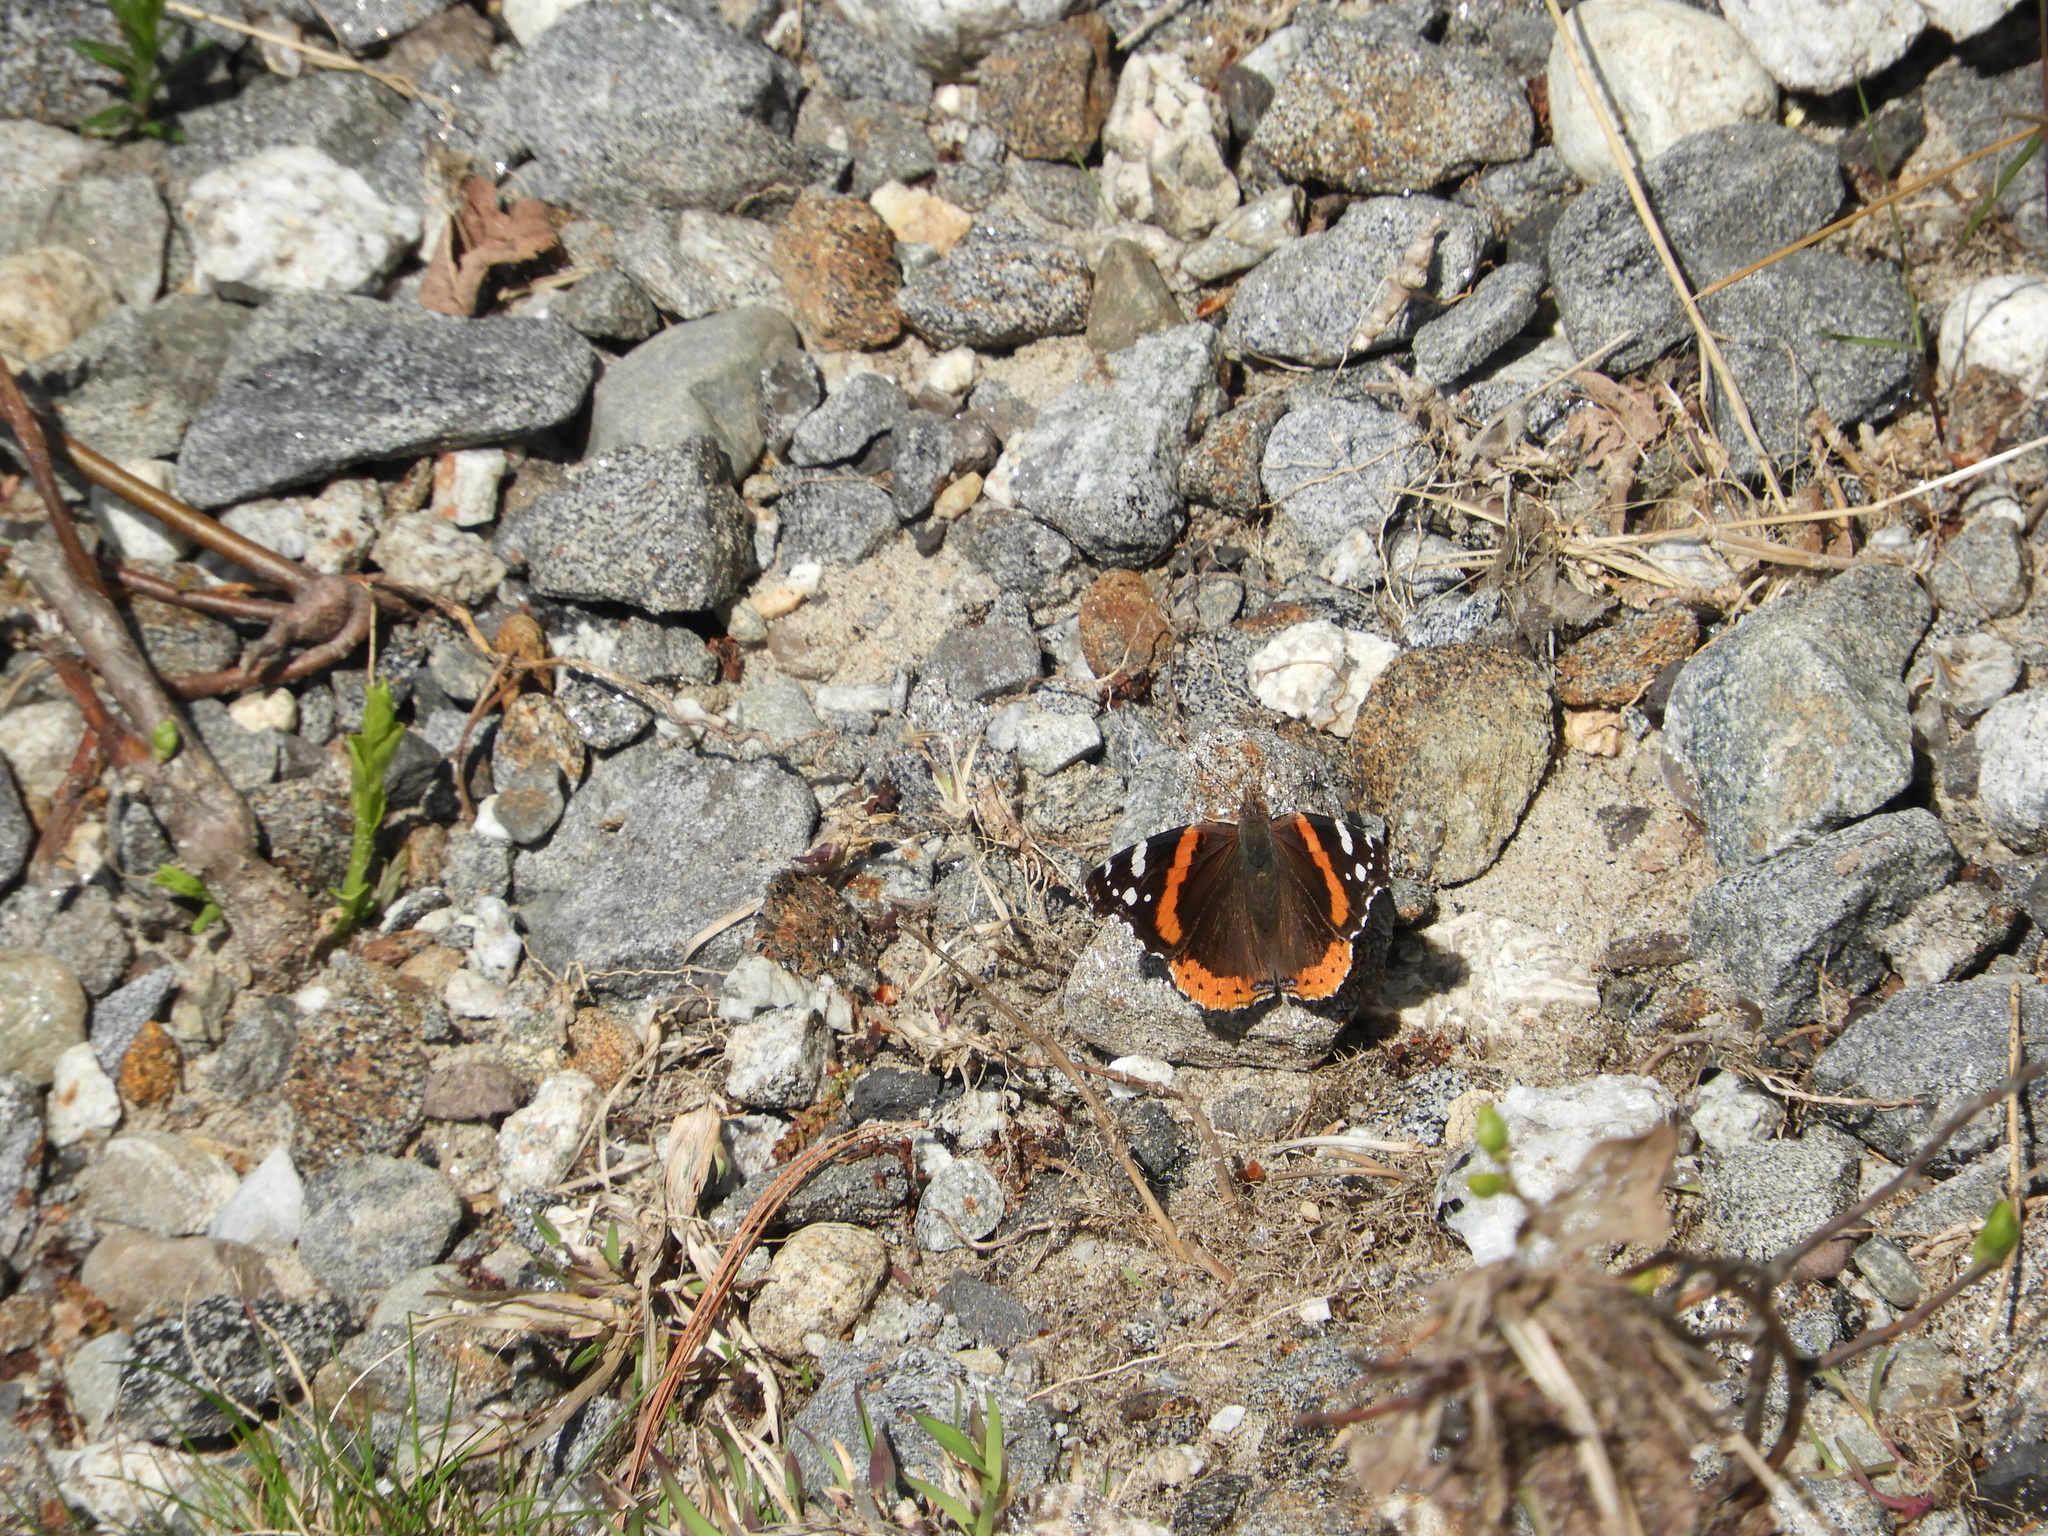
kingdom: Animalia
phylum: Arthropoda
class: Insecta
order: Lepidoptera
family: Nymphalidae
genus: Vanessa
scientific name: Vanessa atalanta
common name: Red admiral
